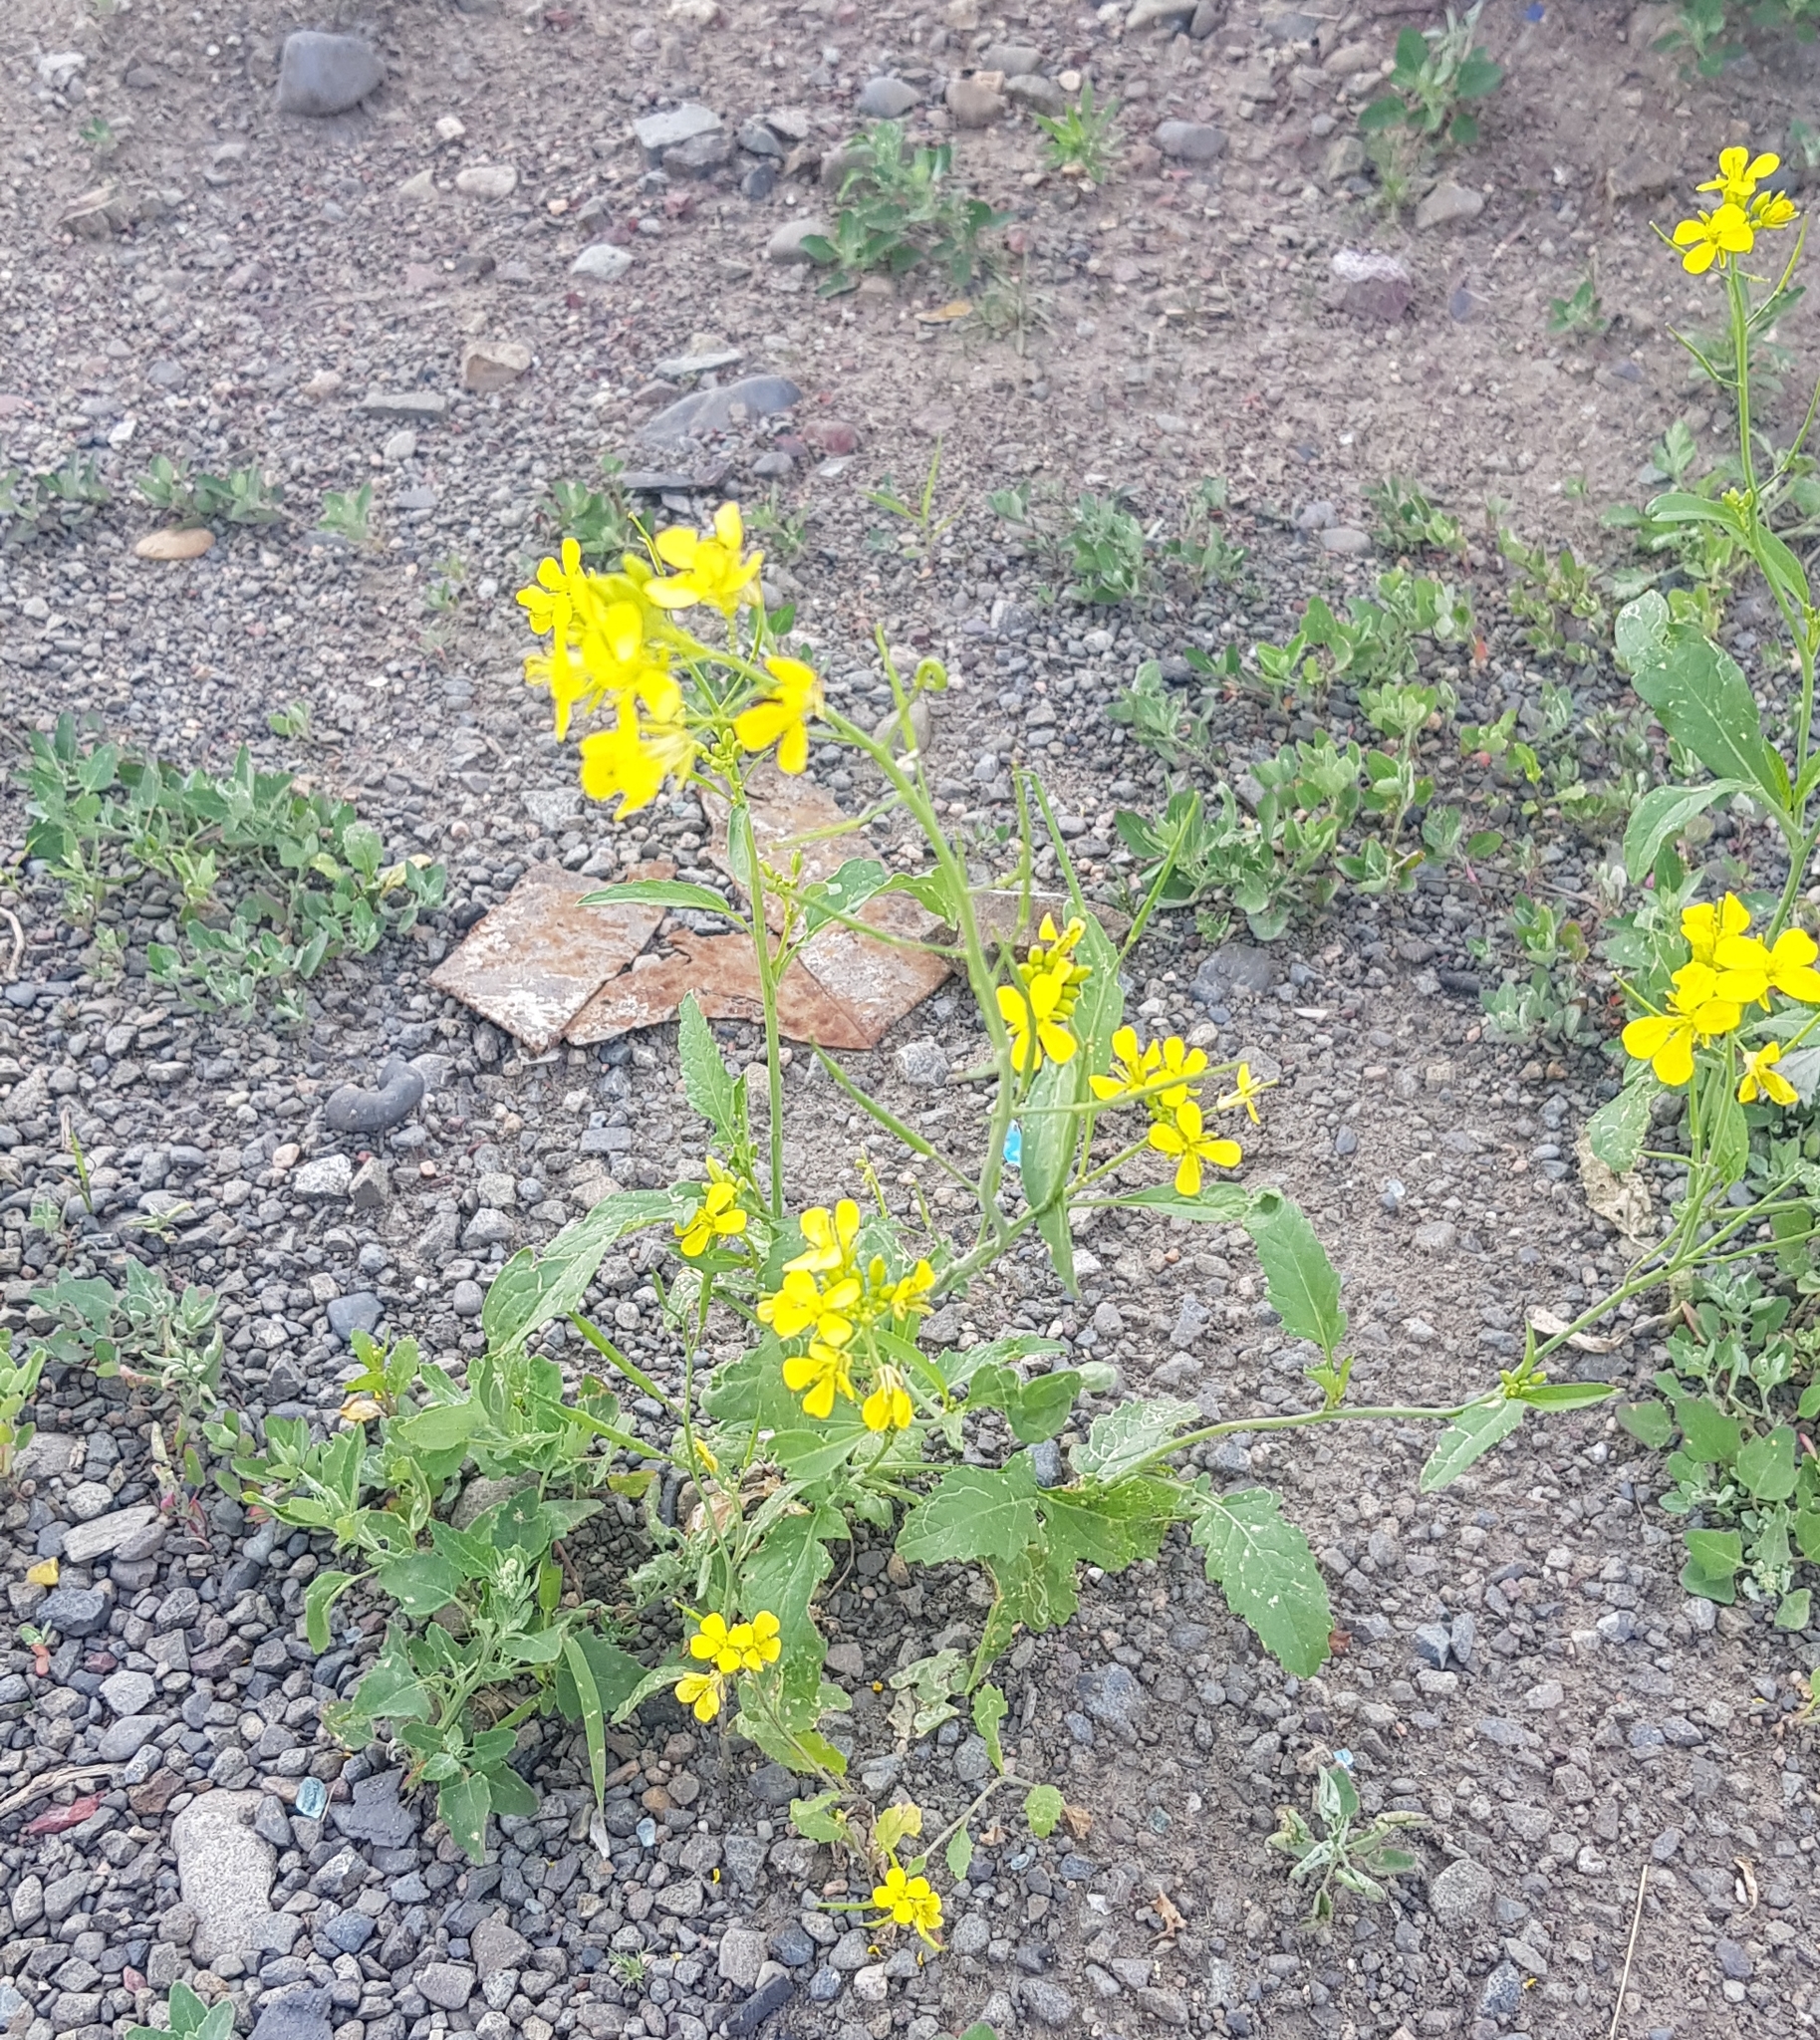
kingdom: Plantae
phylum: Tracheophyta
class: Magnoliopsida
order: Brassicales
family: Brassicaceae
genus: Brassica
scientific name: Brassica rapa
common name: Field mustard
